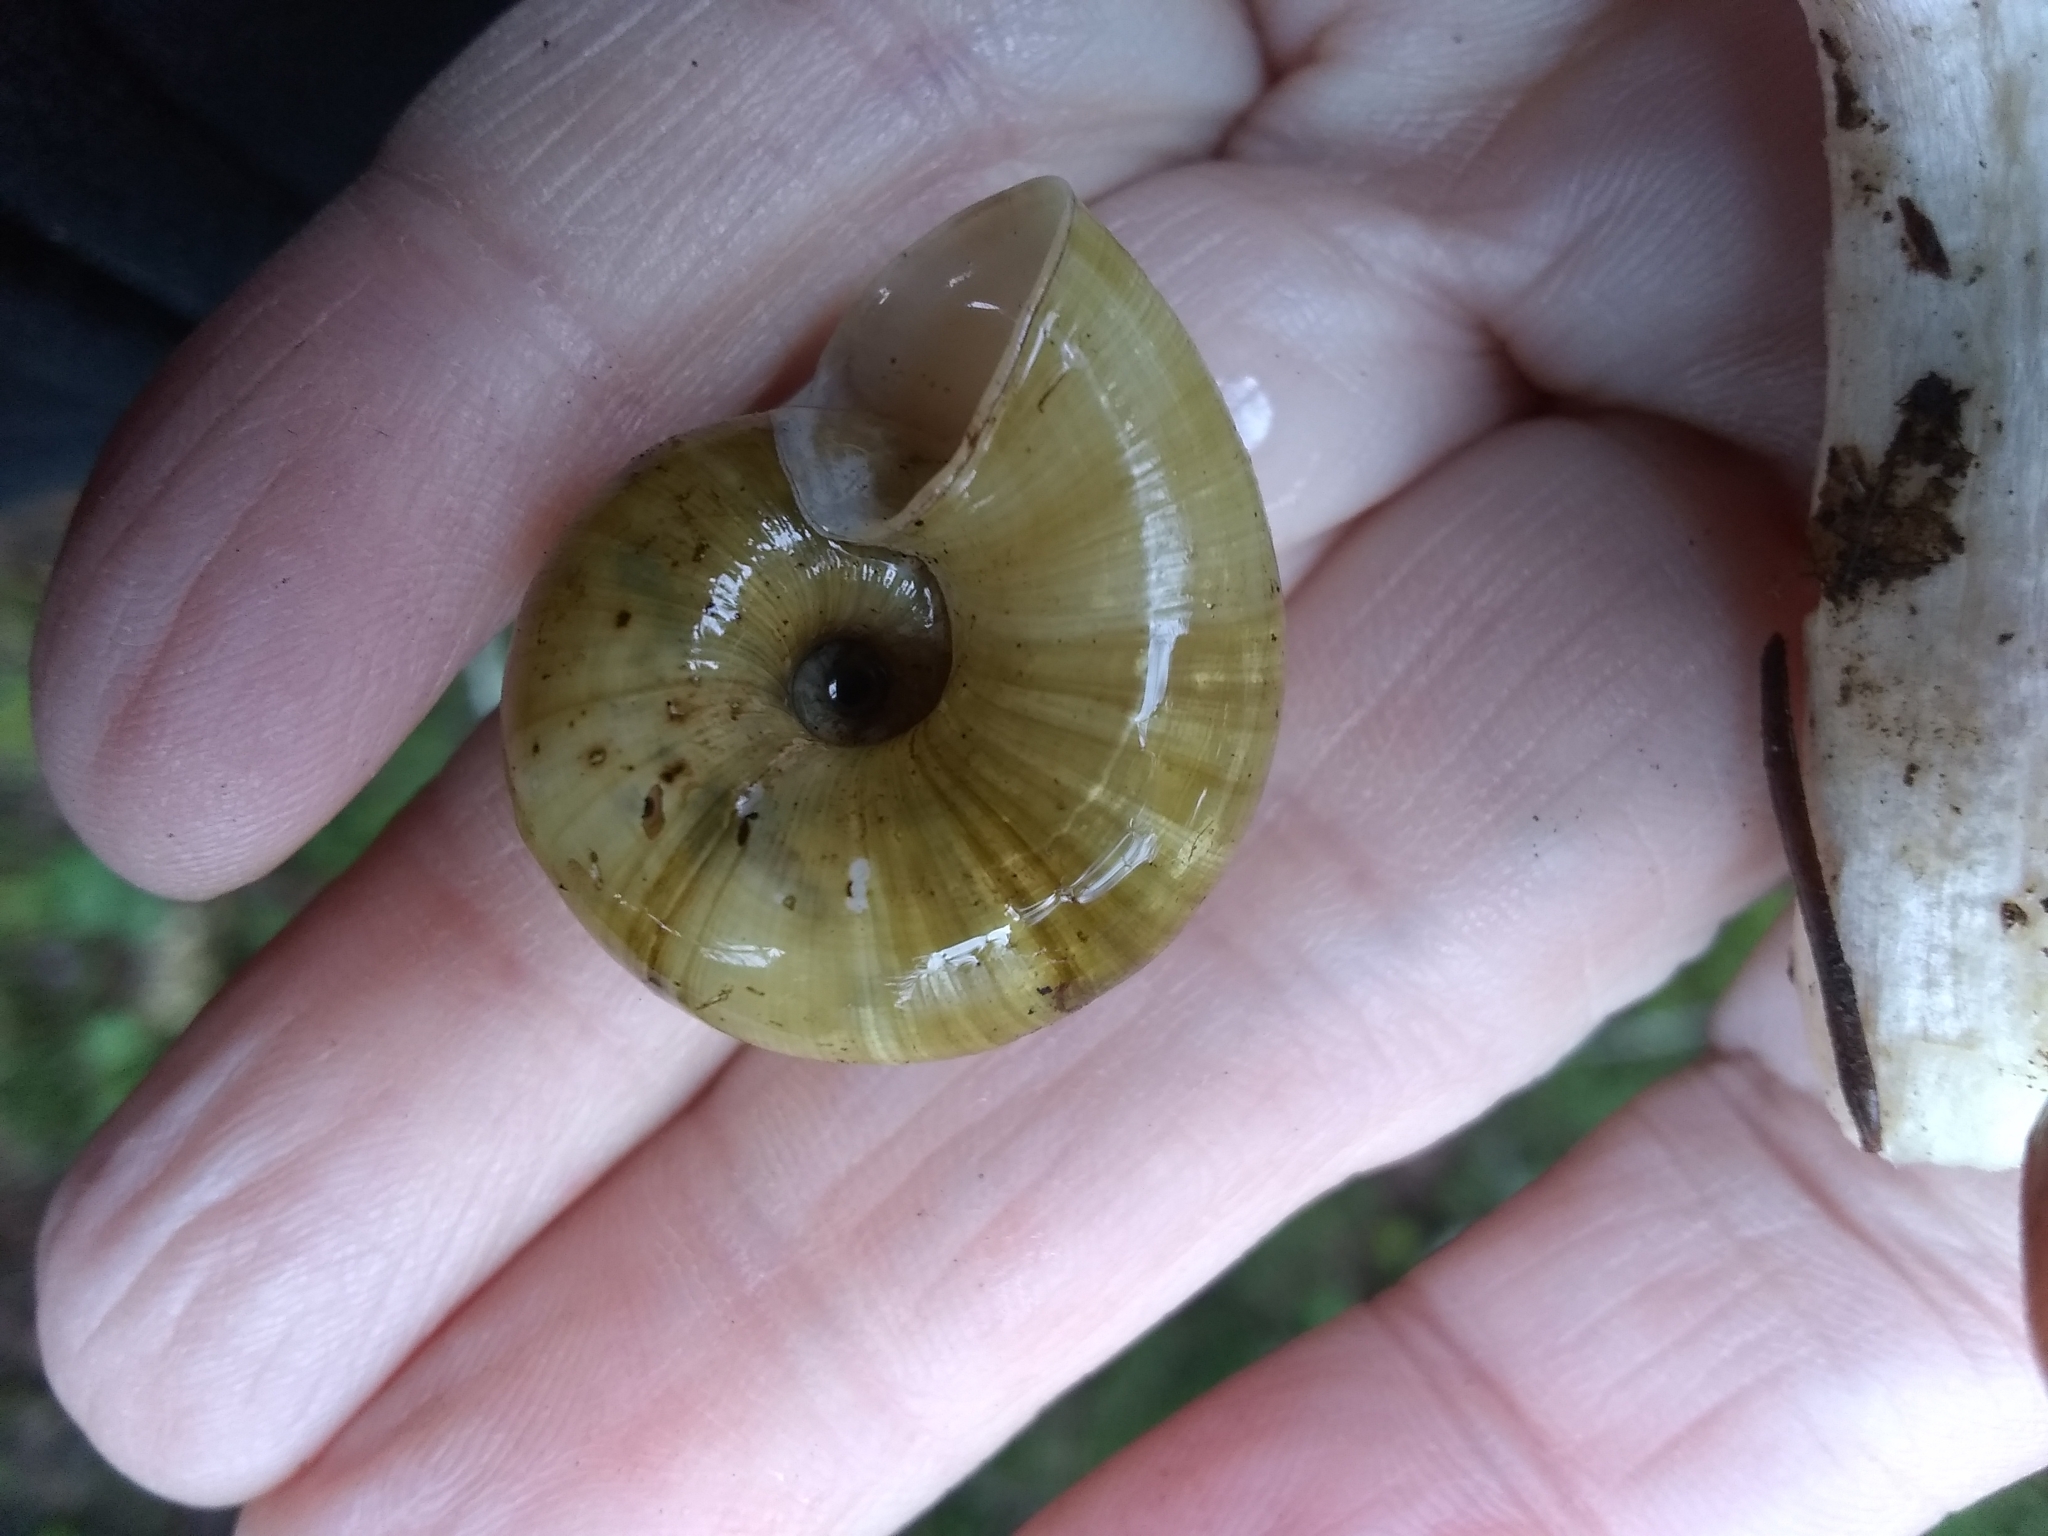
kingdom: Animalia
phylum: Mollusca
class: Gastropoda
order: Stylommatophora
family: Haplotrematidae
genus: Haplotrema
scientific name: Haplotrema vancouverense
